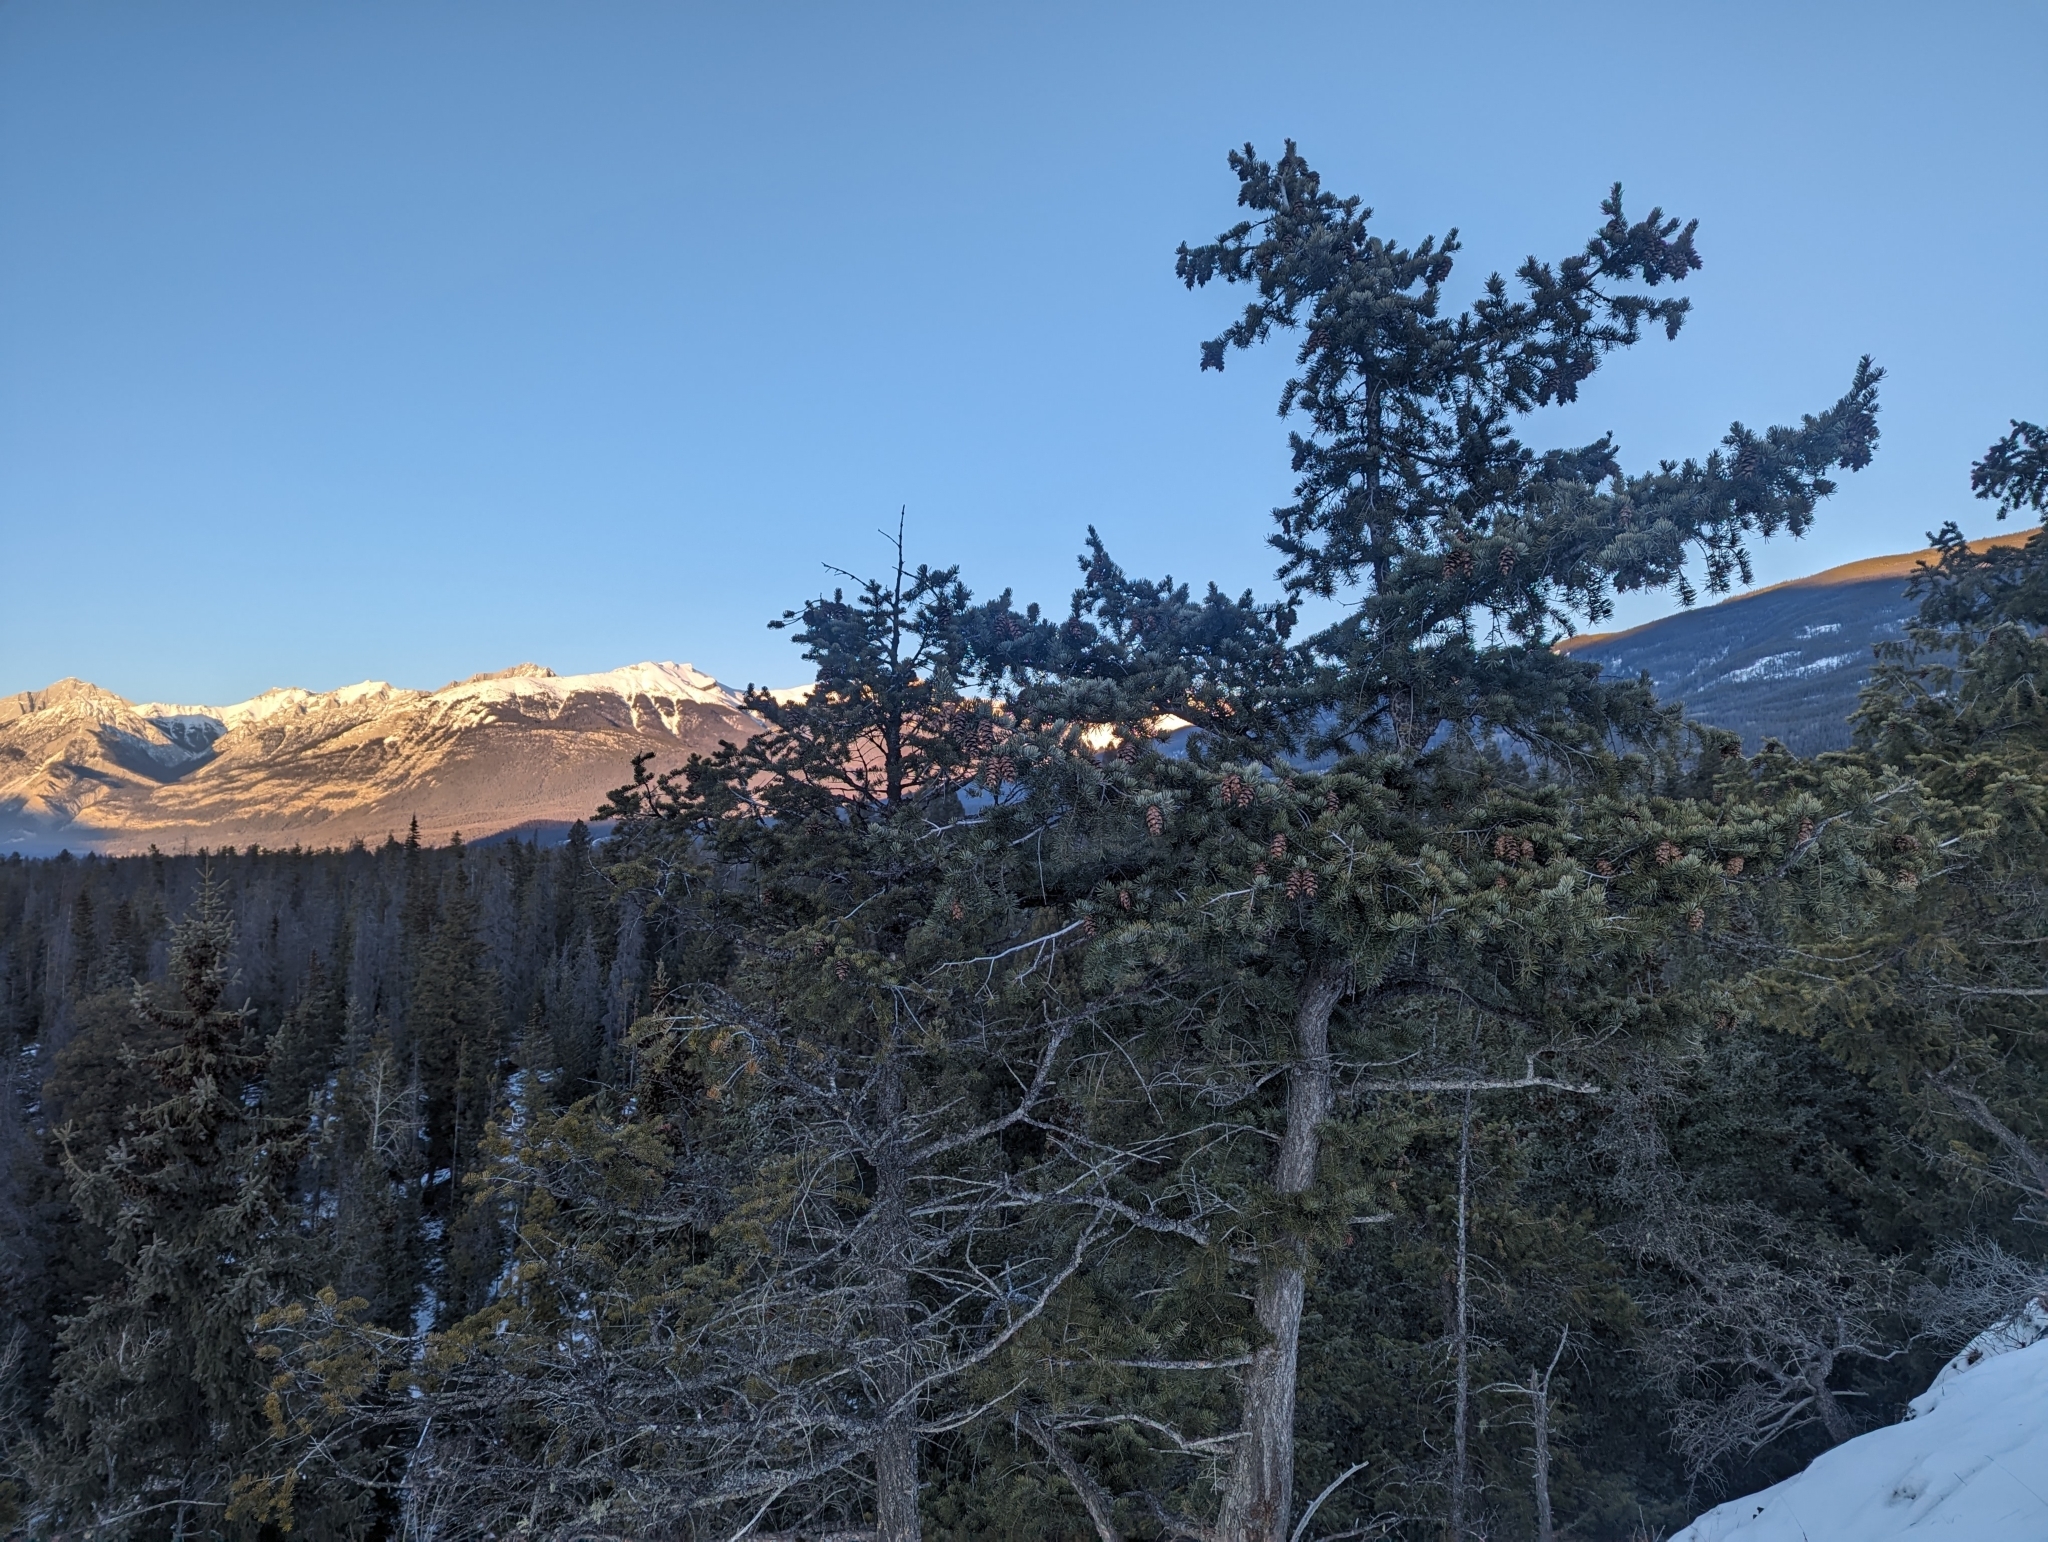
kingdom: Plantae
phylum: Tracheophyta
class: Pinopsida
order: Pinales
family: Pinaceae
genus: Pseudotsuga
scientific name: Pseudotsuga menziesii
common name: Douglas fir
